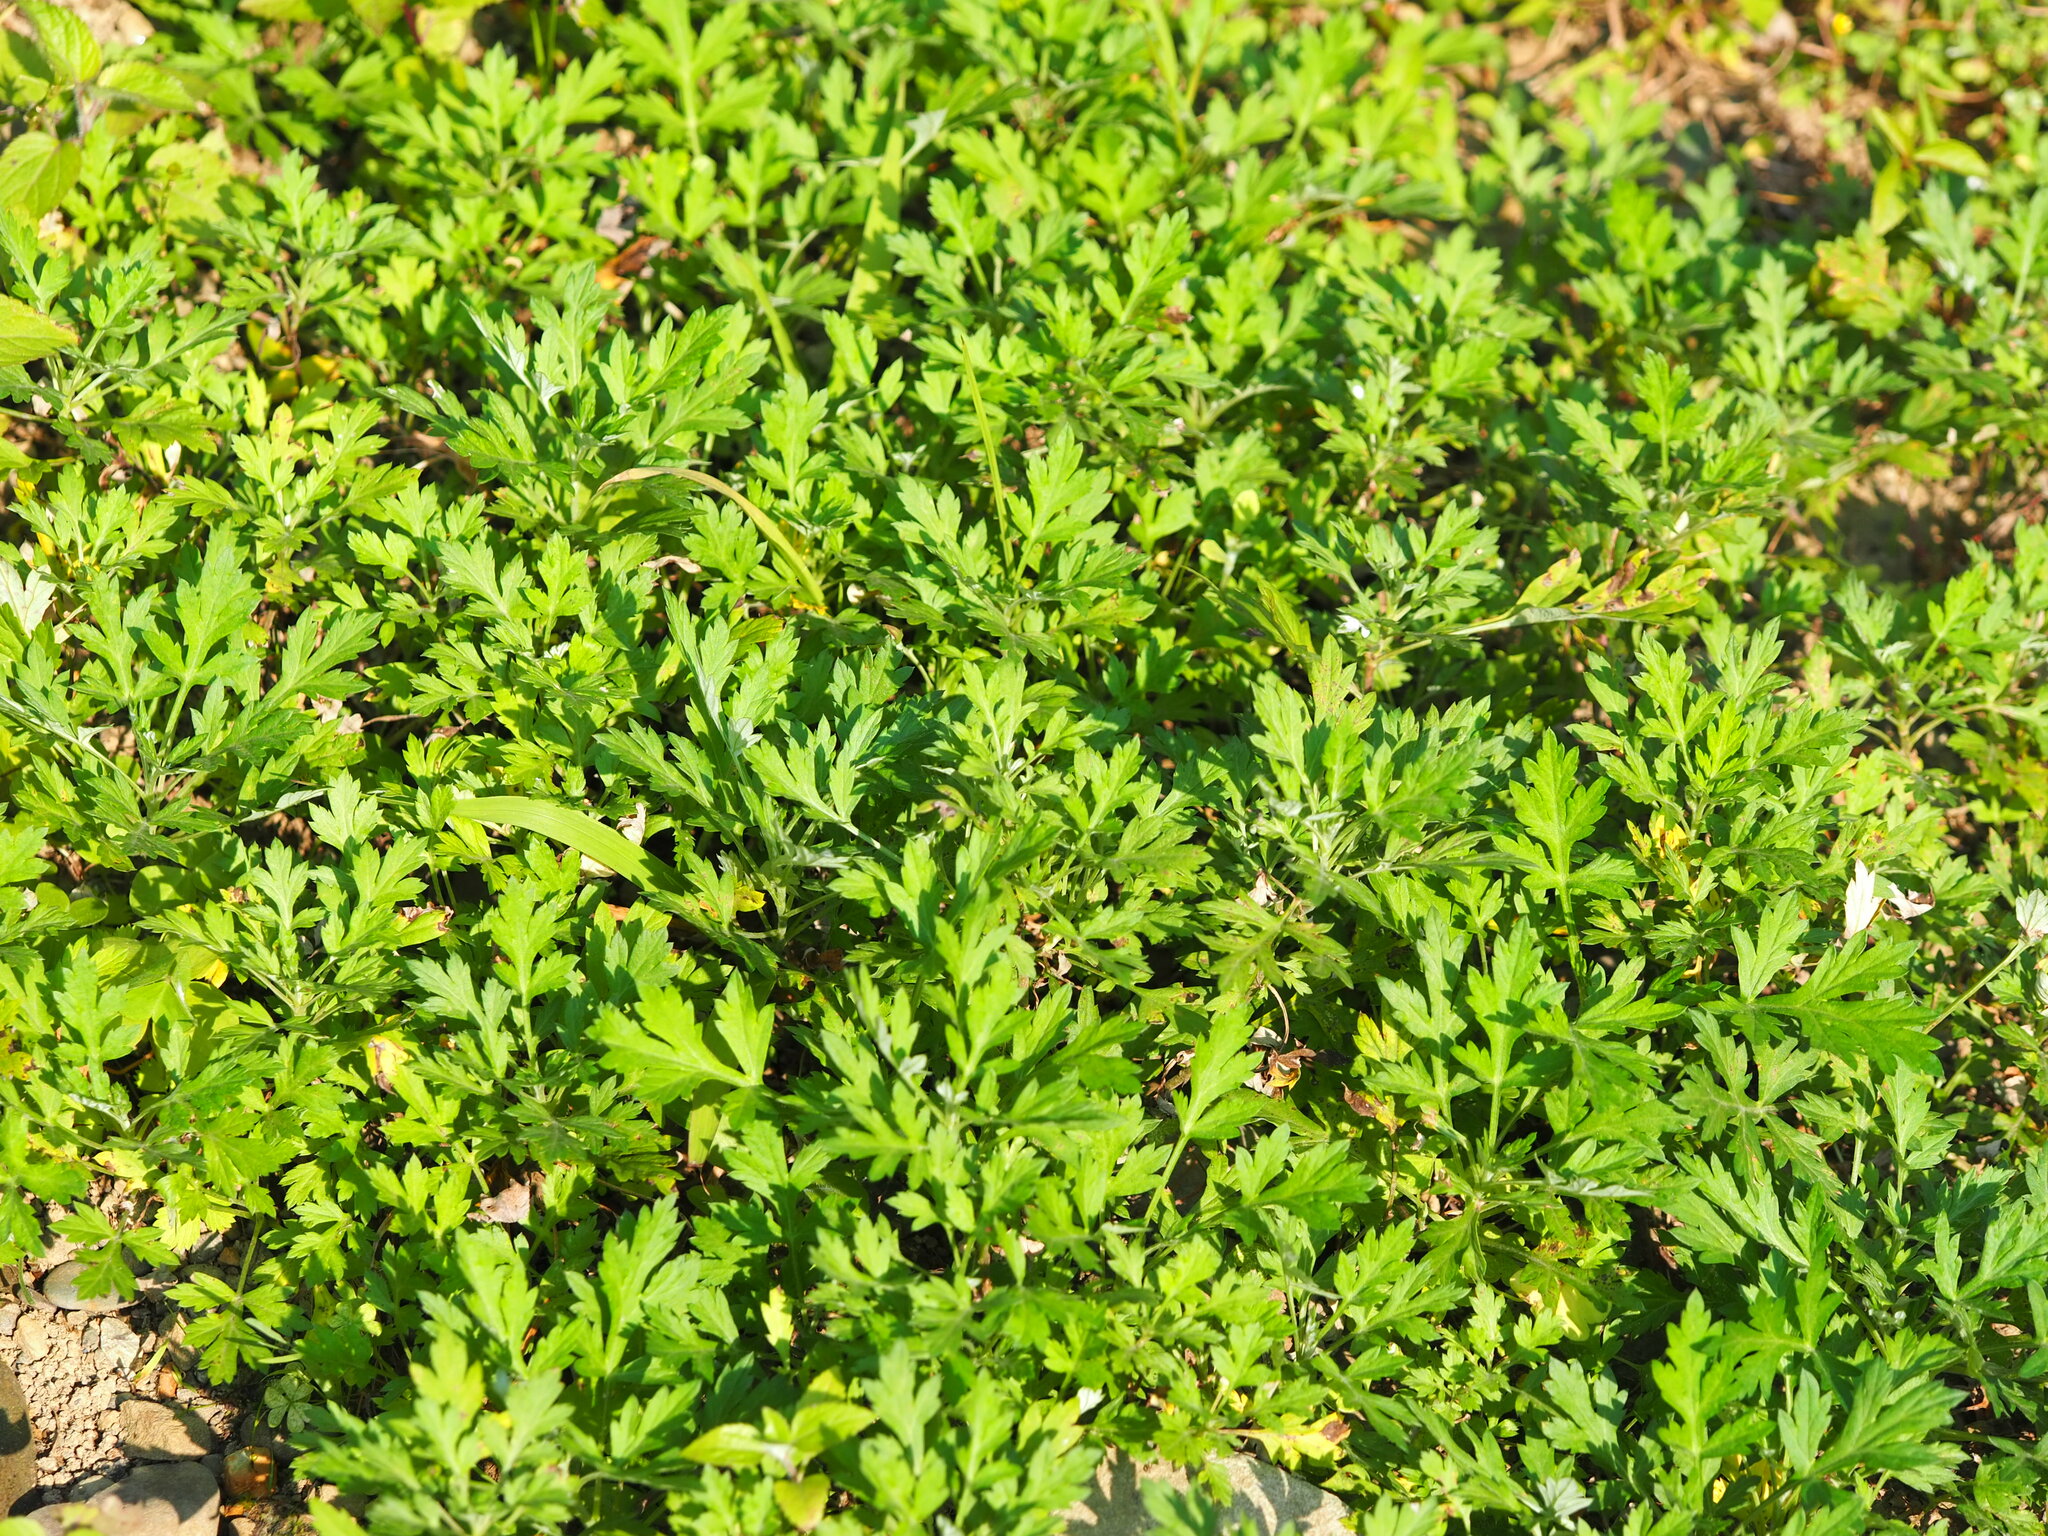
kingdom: Plantae
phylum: Tracheophyta
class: Magnoliopsida
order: Asterales
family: Asteraceae
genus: Artemisia
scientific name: Artemisia indica
